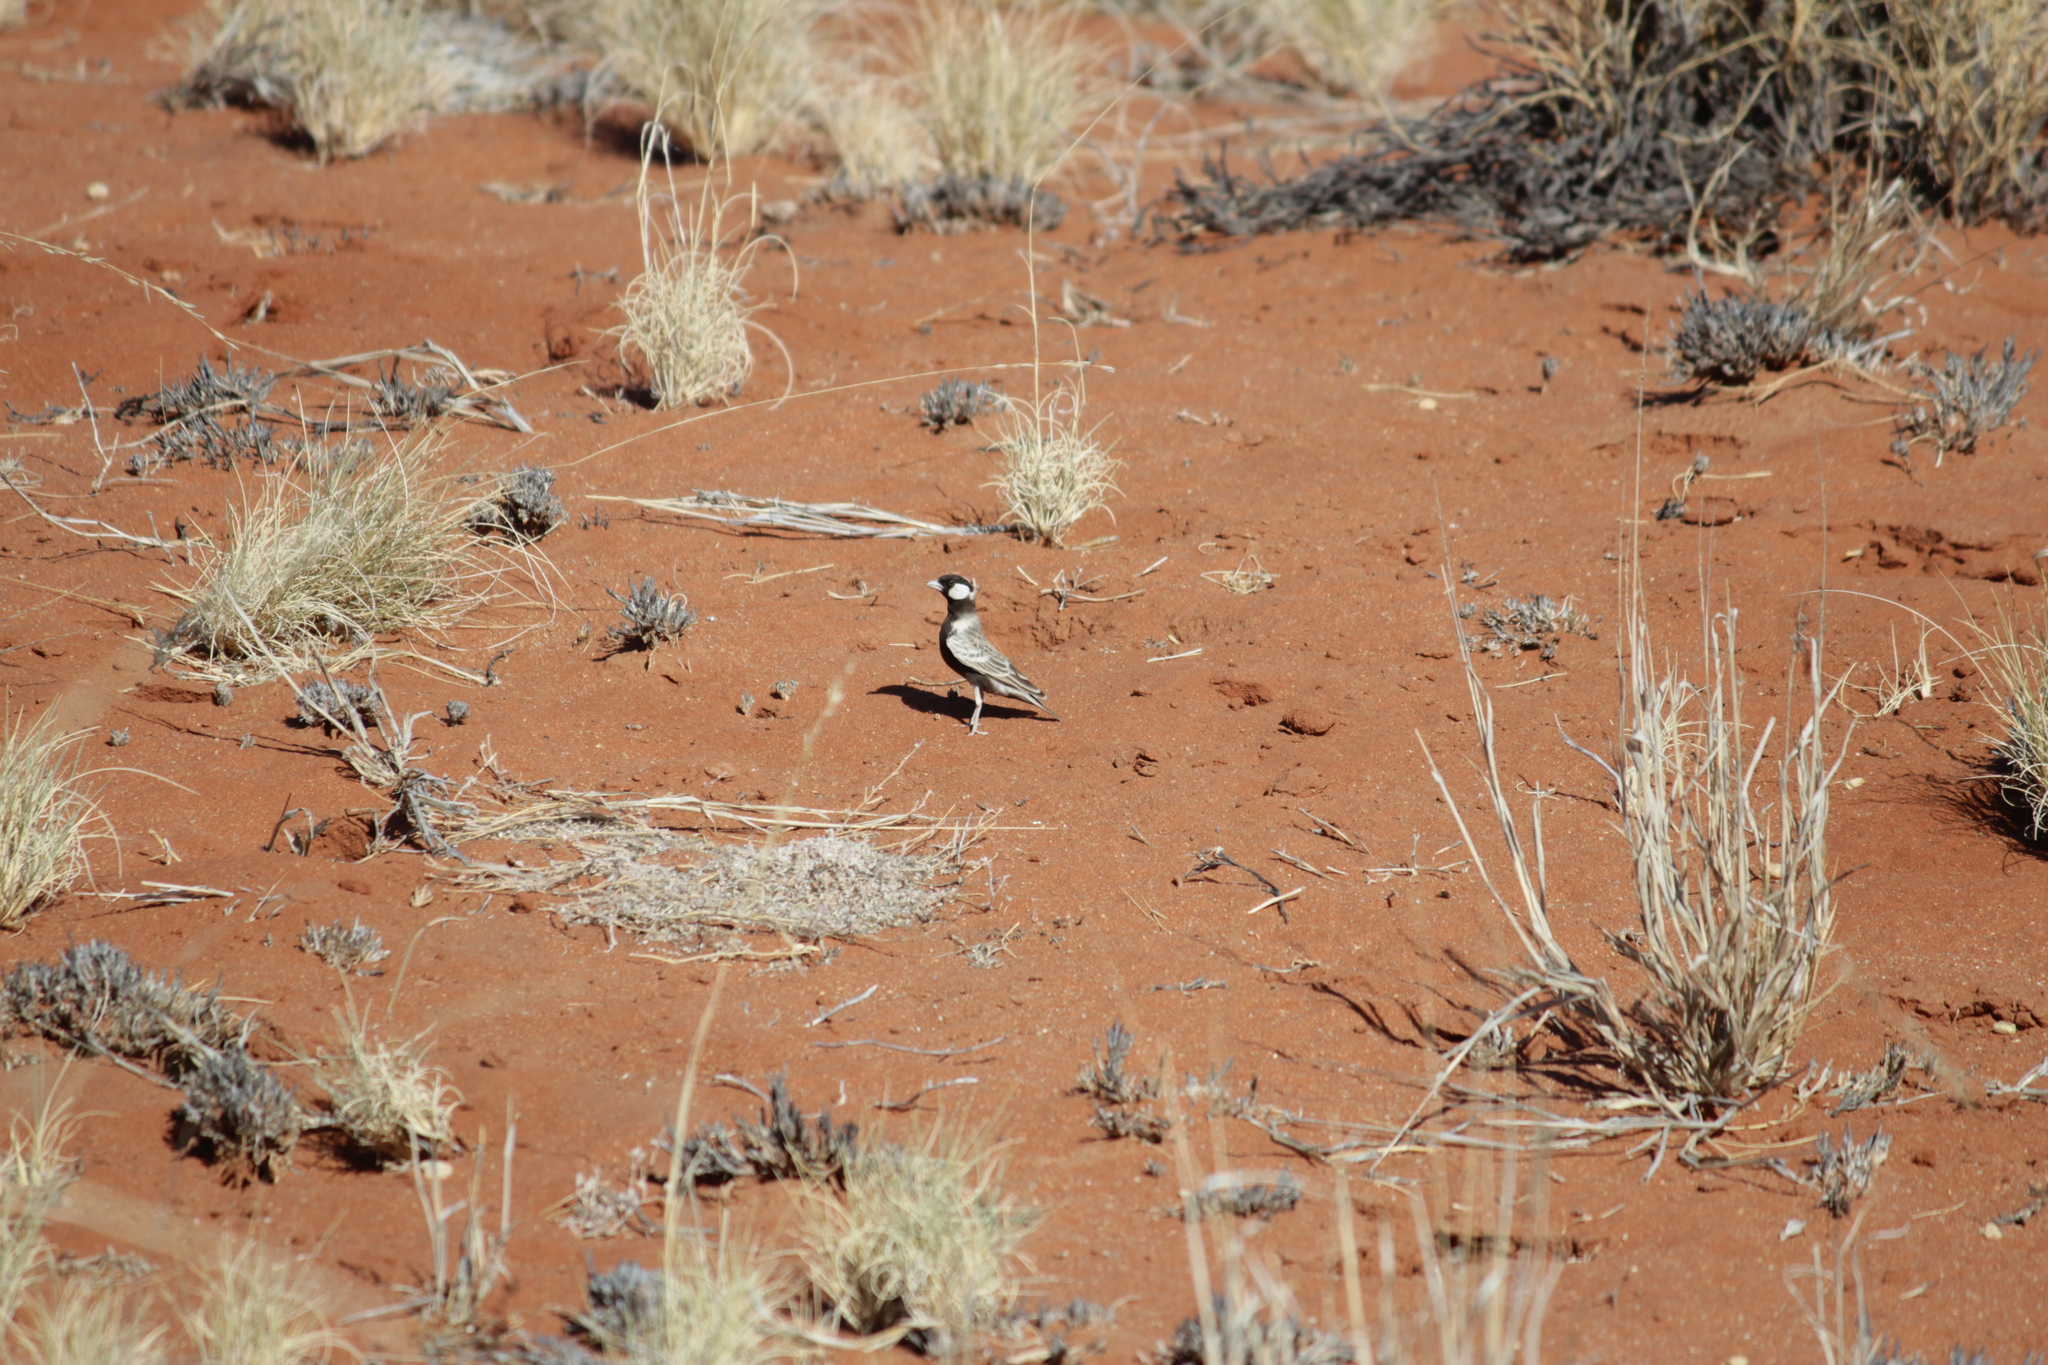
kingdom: Animalia
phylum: Chordata
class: Aves
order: Passeriformes
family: Alaudidae
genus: Eremopterix
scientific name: Eremopterix verticalis
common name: Grey-backed sparrow-lark
